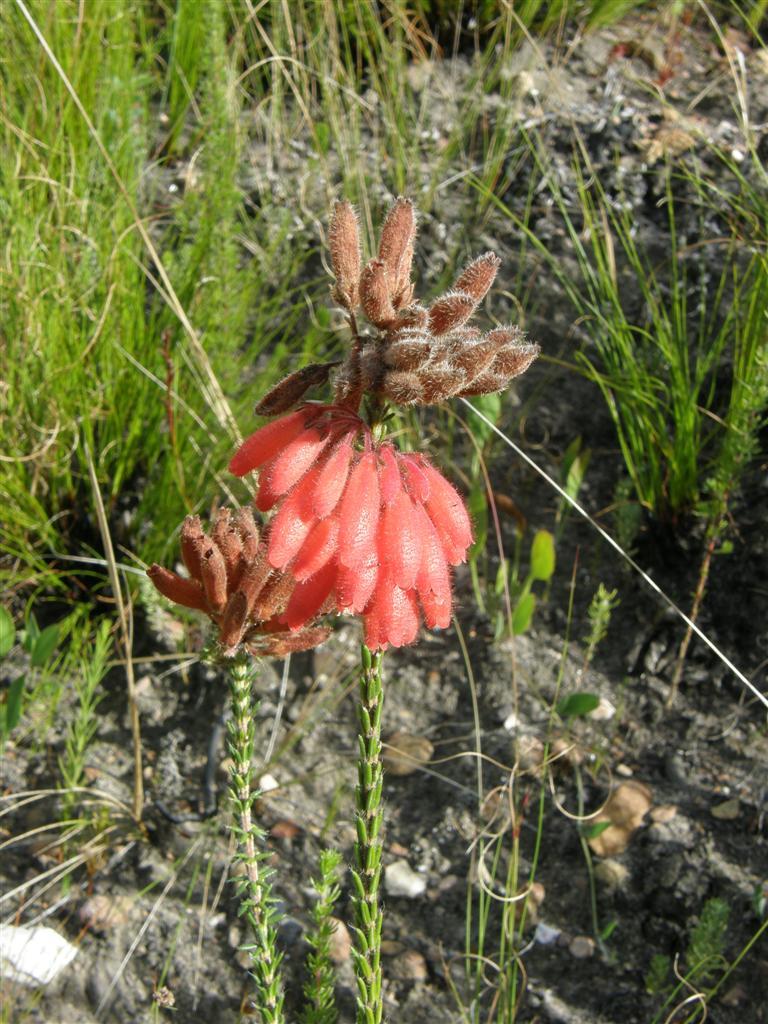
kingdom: Plantae
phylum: Tracheophyta
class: Magnoliopsida
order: Ericales
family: Ericaceae
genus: Erica
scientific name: Erica cerinthoides
